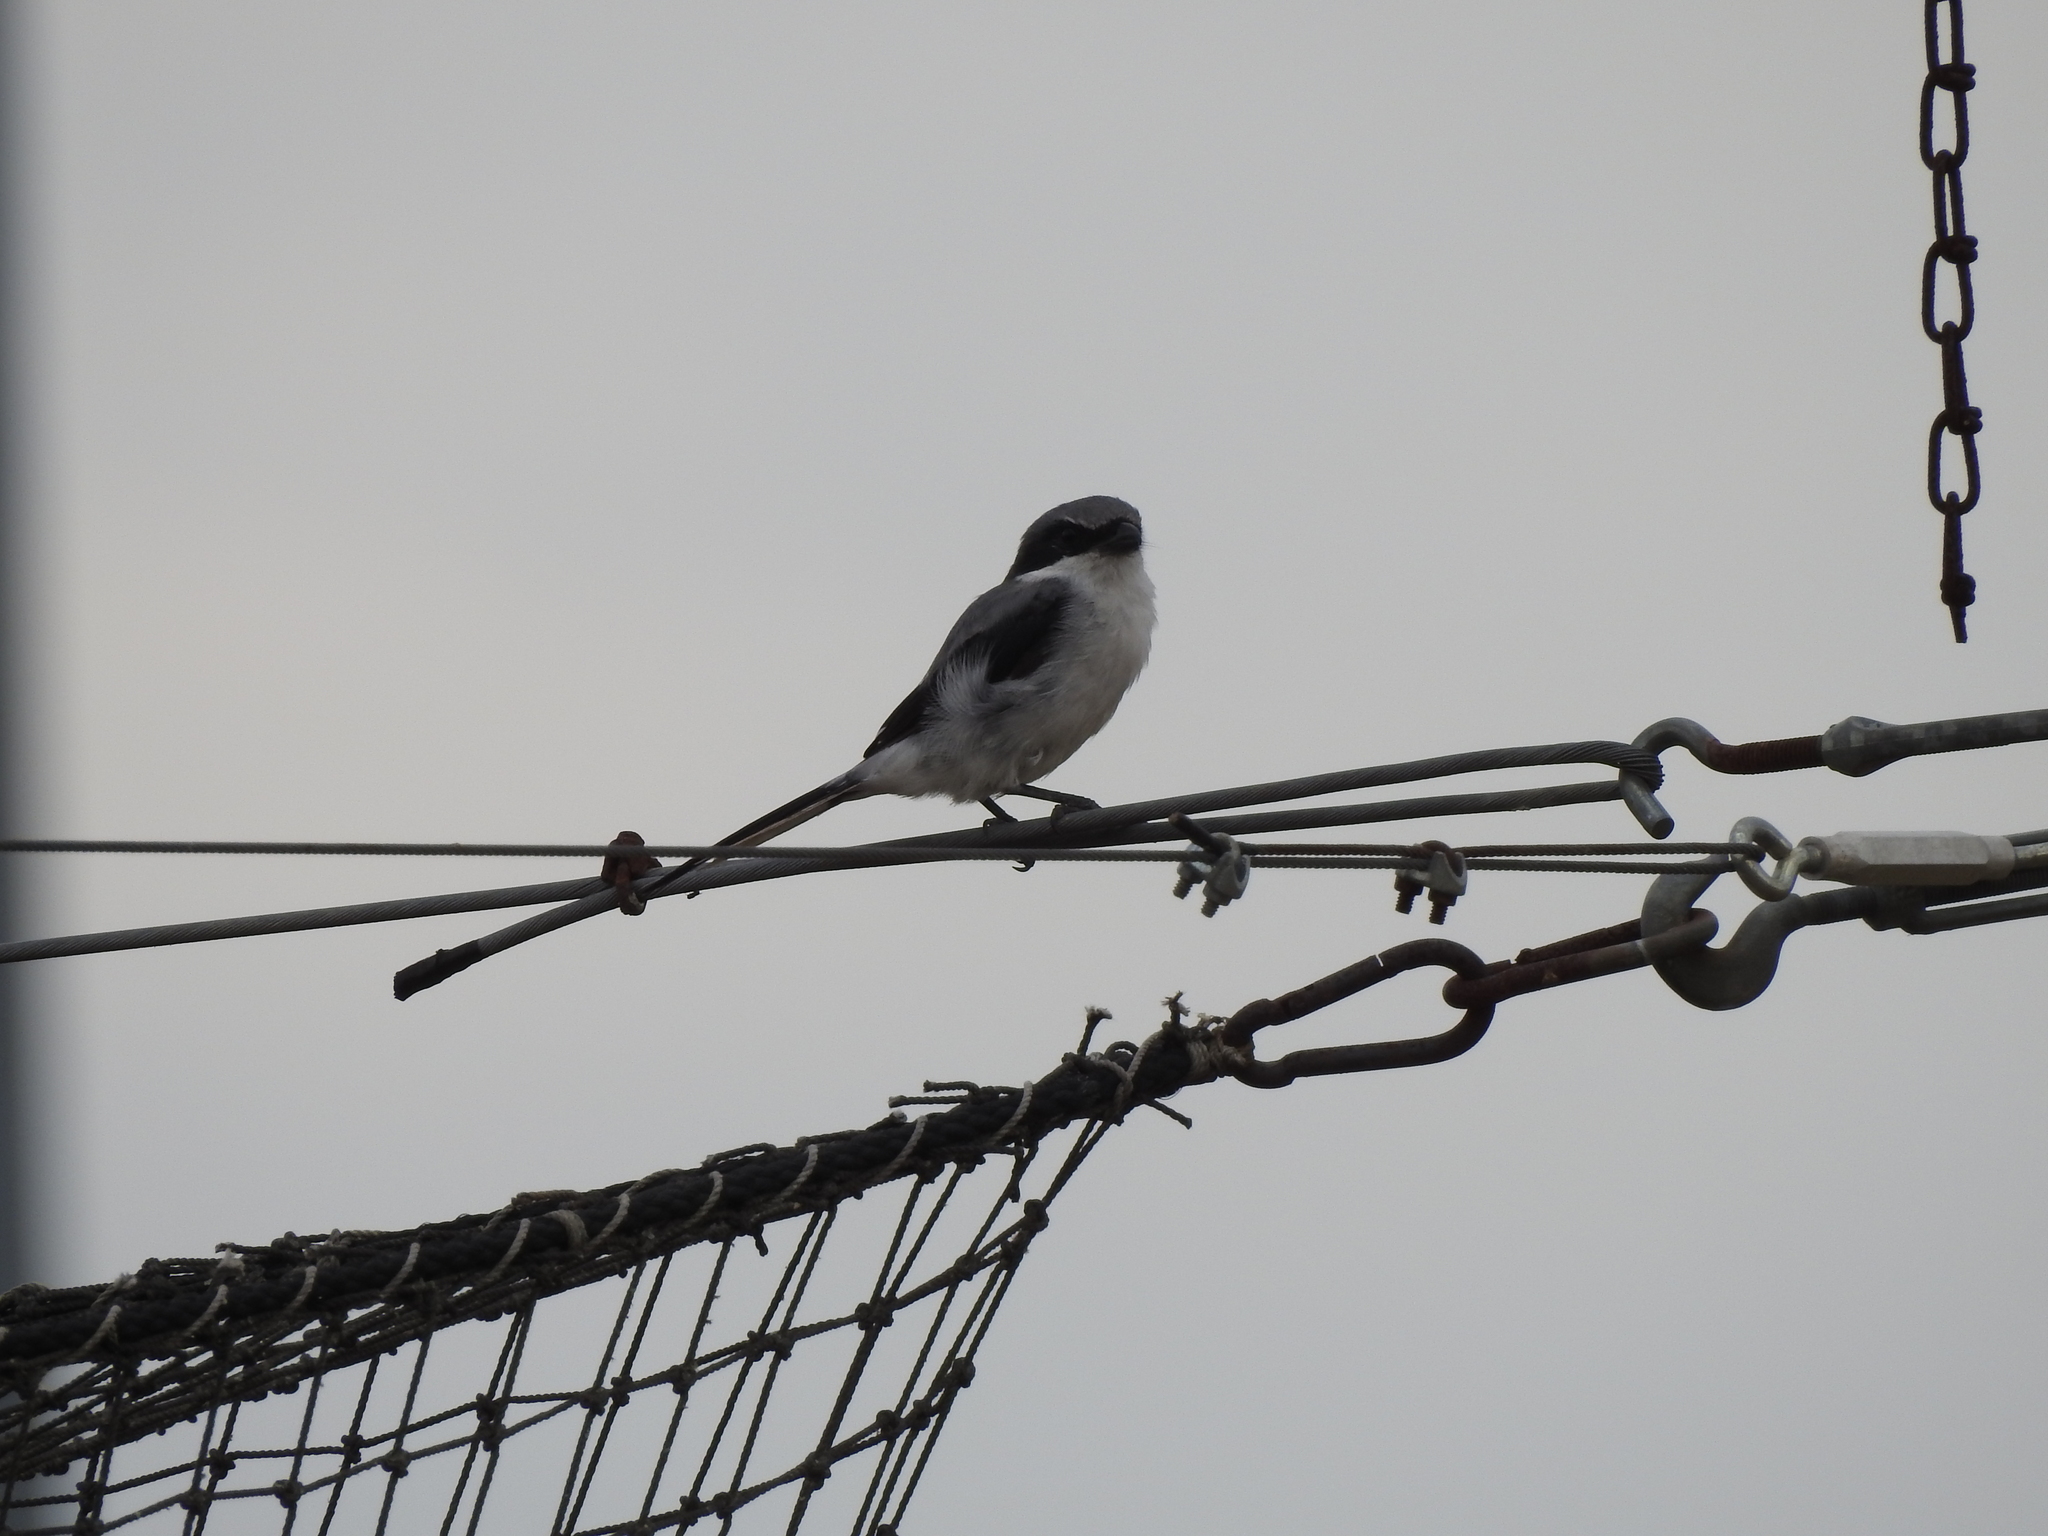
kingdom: Animalia
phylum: Chordata
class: Aves
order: Passeriformes
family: Laniidae
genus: Lanius
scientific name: Lanius ludovicianus
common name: Loggerhead shrike
